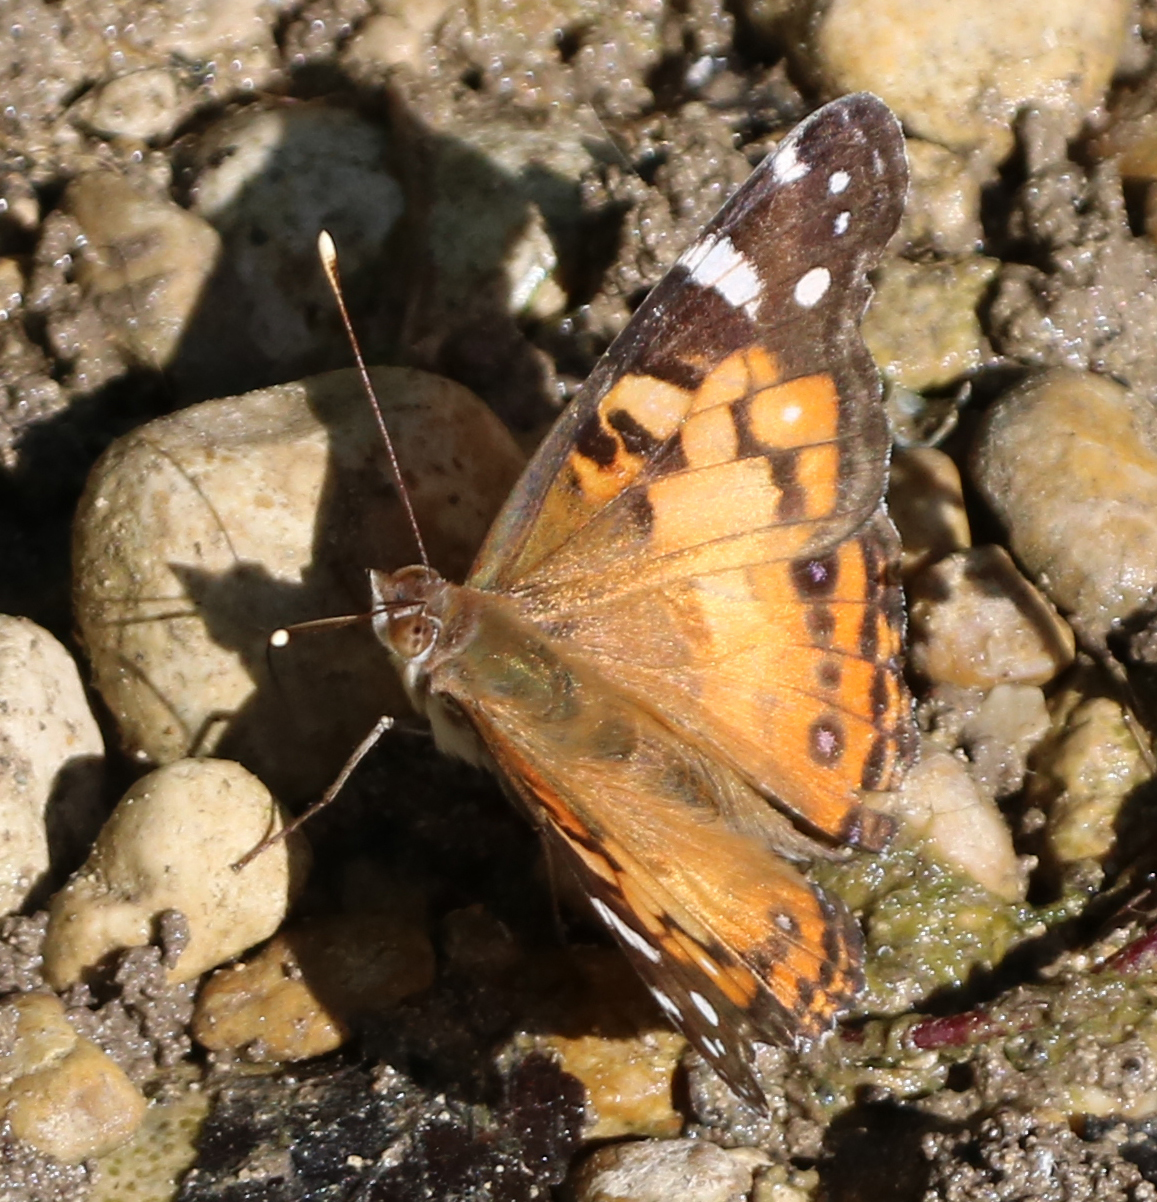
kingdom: Animalia
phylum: Arthropoda
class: Insecta
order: Lepidoptera
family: Nymphalidae
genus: Vanessa
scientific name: Vanessa virginiensis
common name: American lady
